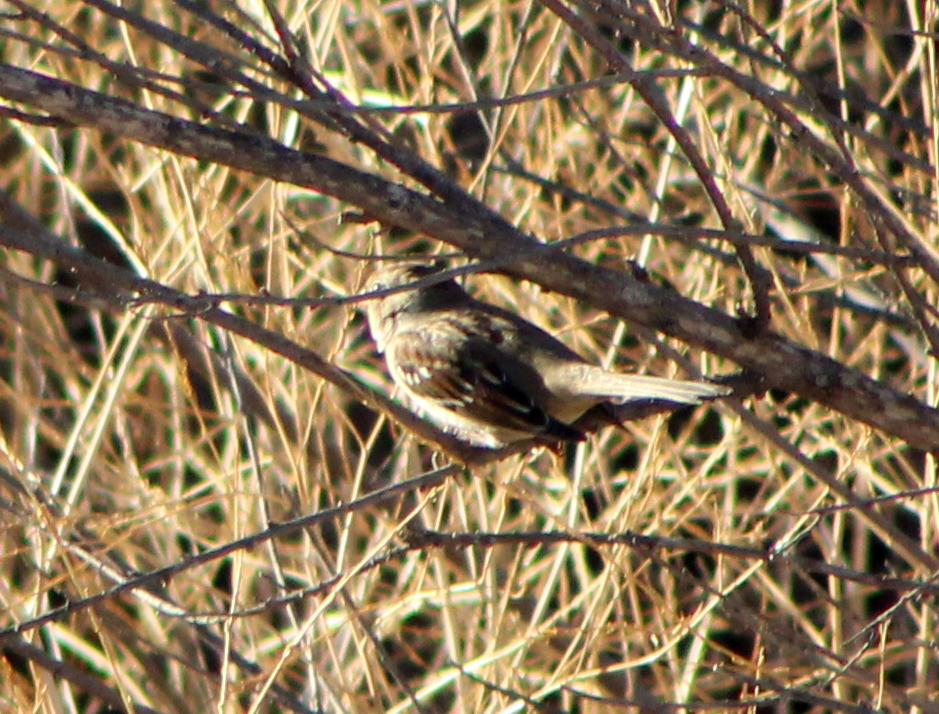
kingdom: Animalia
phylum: Chordata
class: Aves
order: Passeriformes
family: Passerellidae
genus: Zonotrichia
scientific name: Zonotrichia leucophrys
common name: White-crowned sparrow
